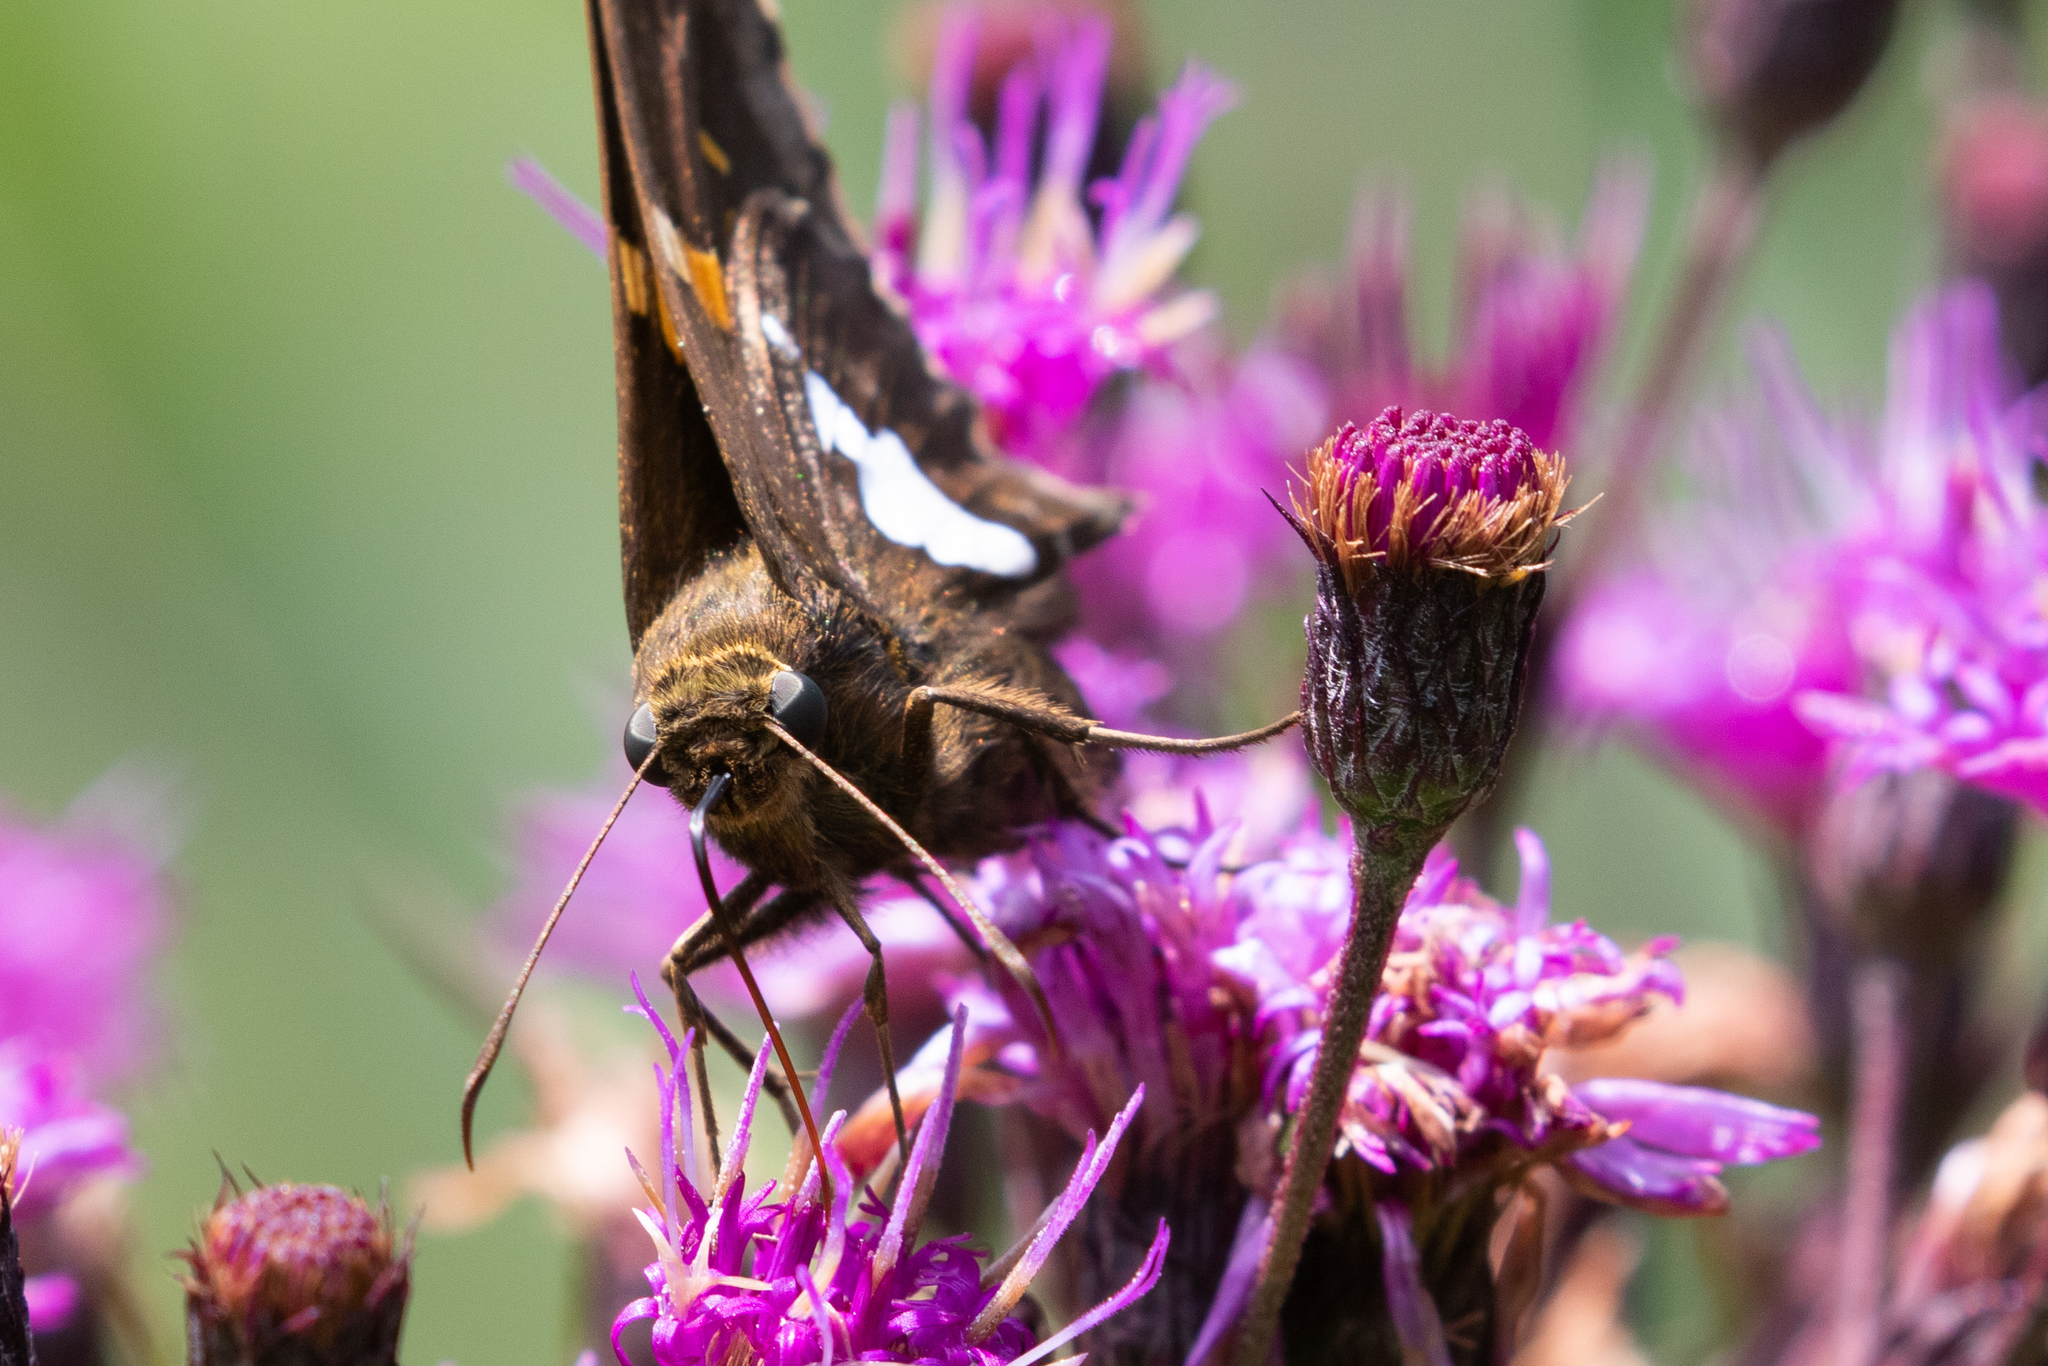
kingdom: Animalia
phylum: Arthropoda
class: Insecta
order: Lepidoptera
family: Hesperiidae
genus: Epargyreus
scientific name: Epargyreus clarus
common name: Silver-spotted skipper
